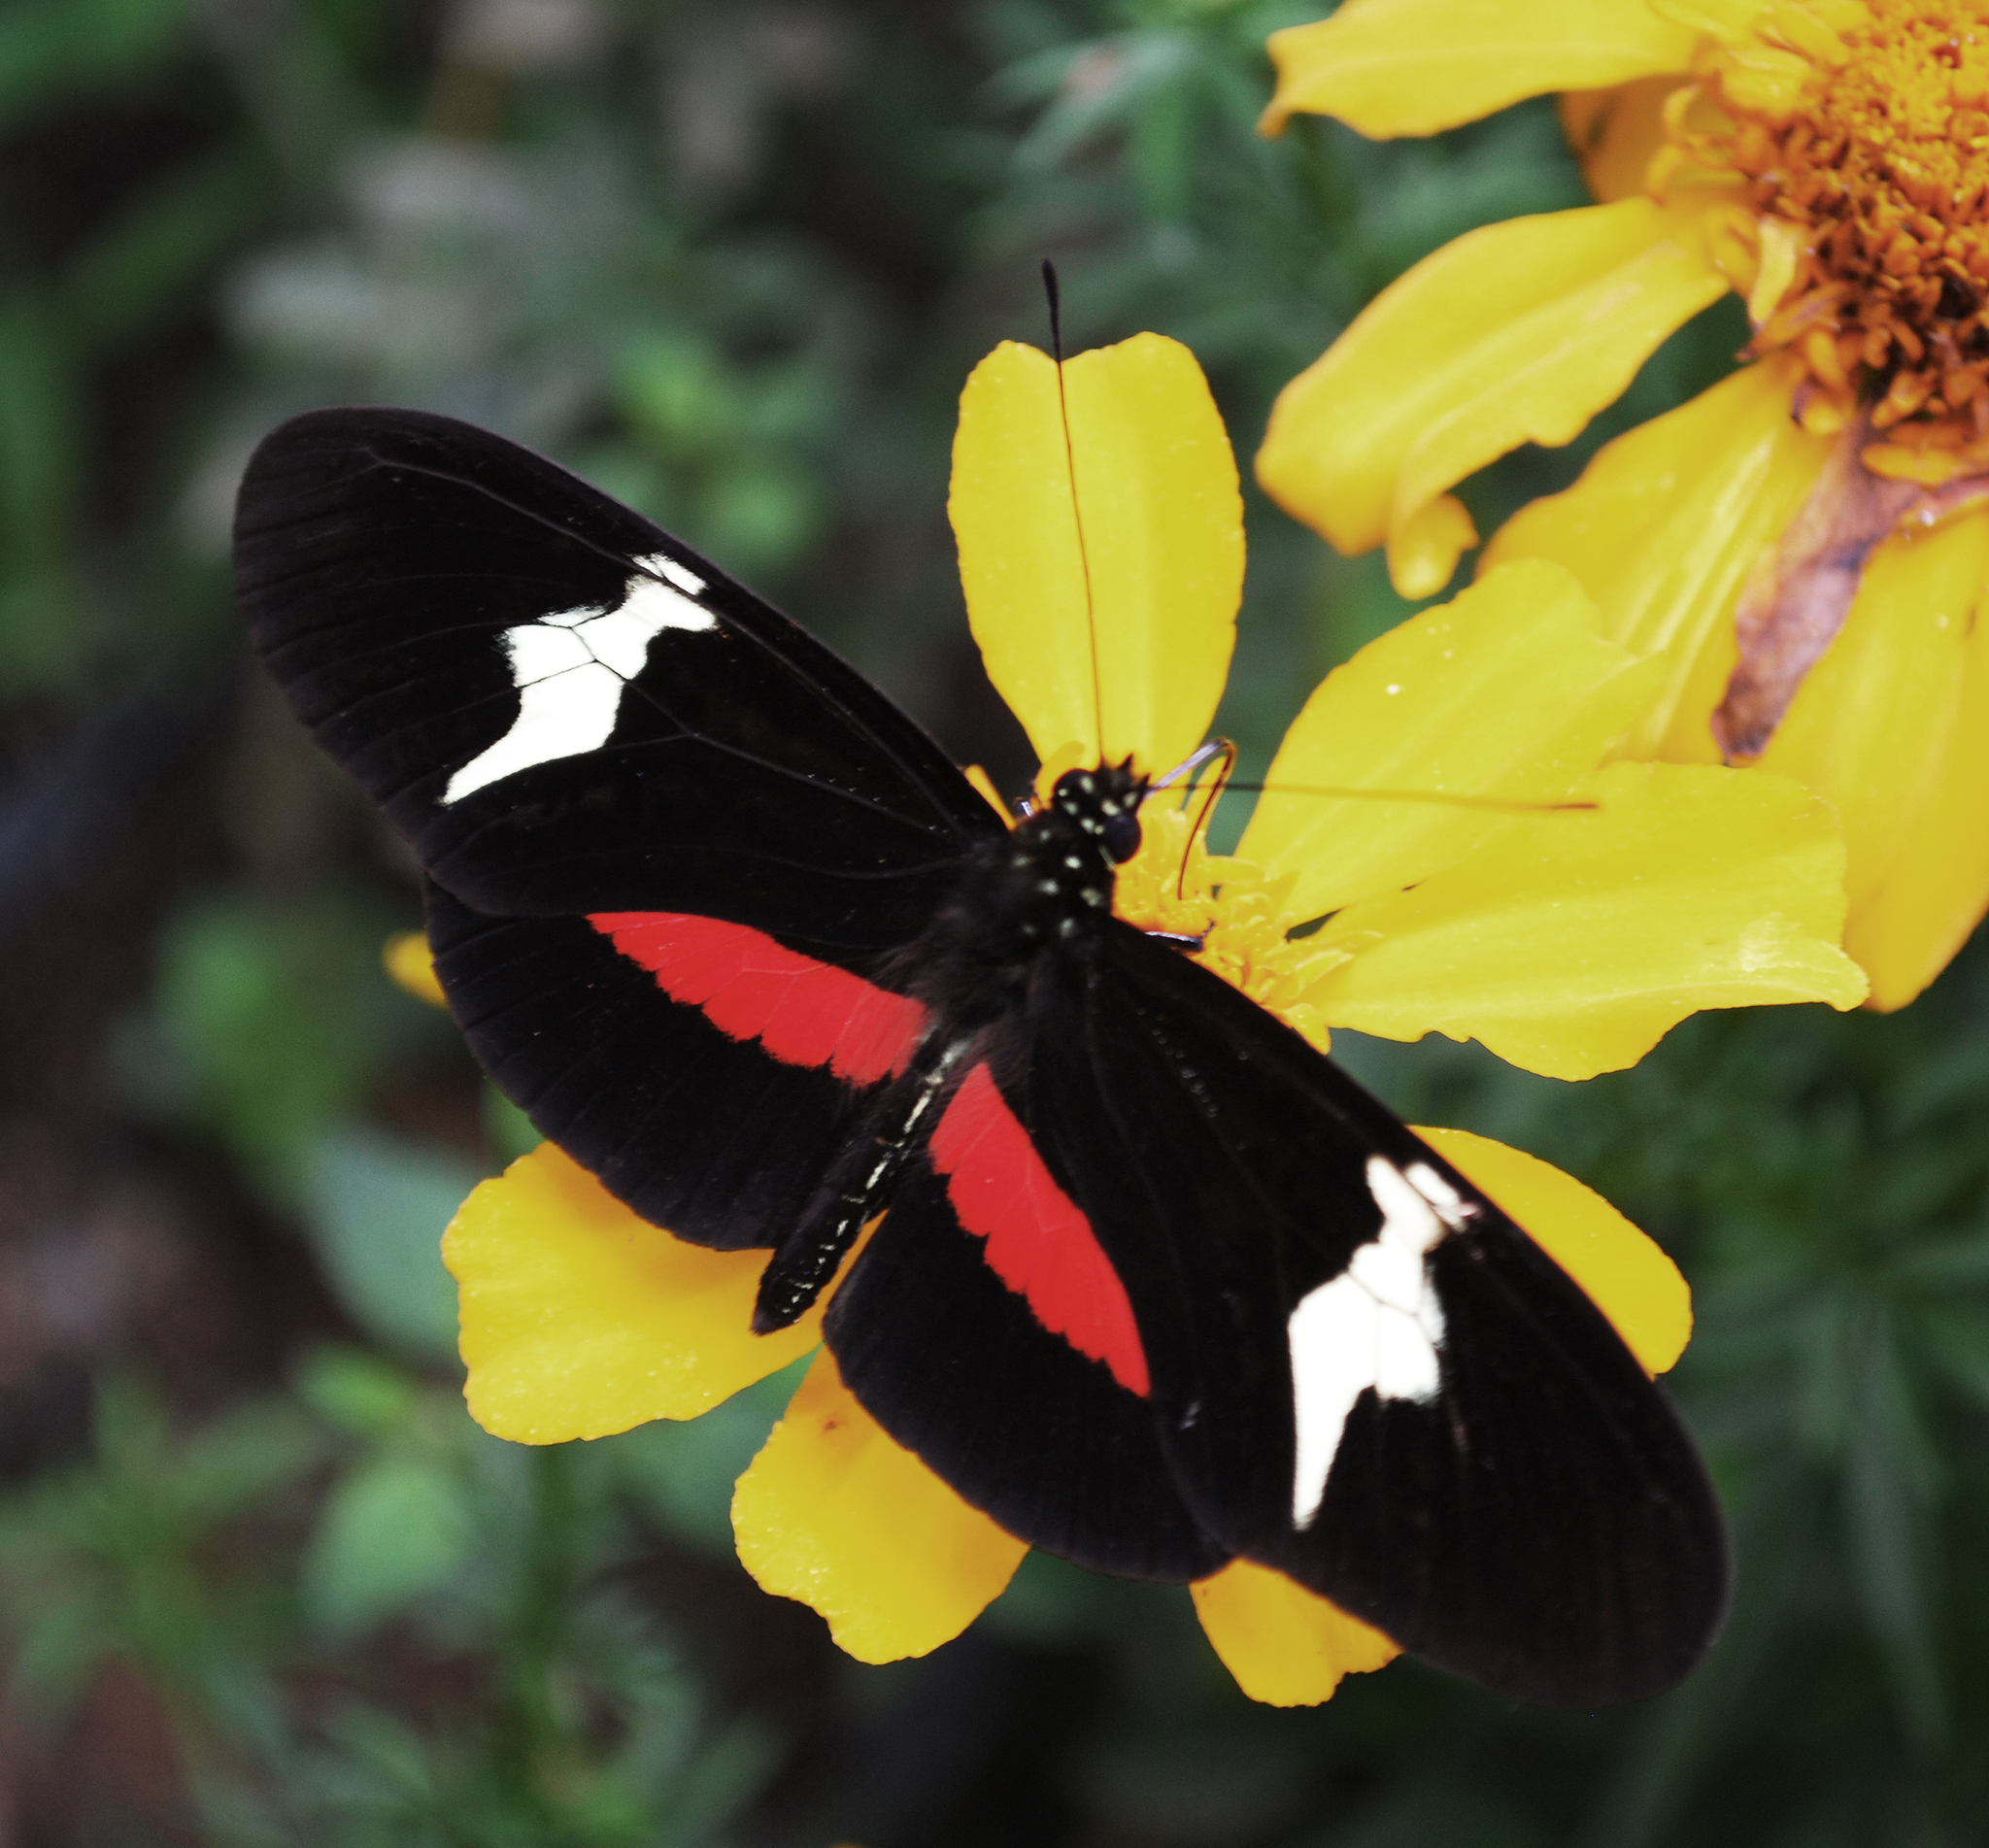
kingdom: Animalia
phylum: Arthropoda
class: Insecta
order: Lepidoptera
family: Nymphalidae
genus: Heliconius
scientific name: Heliconius clysonymus
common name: Clysonymus longwing
